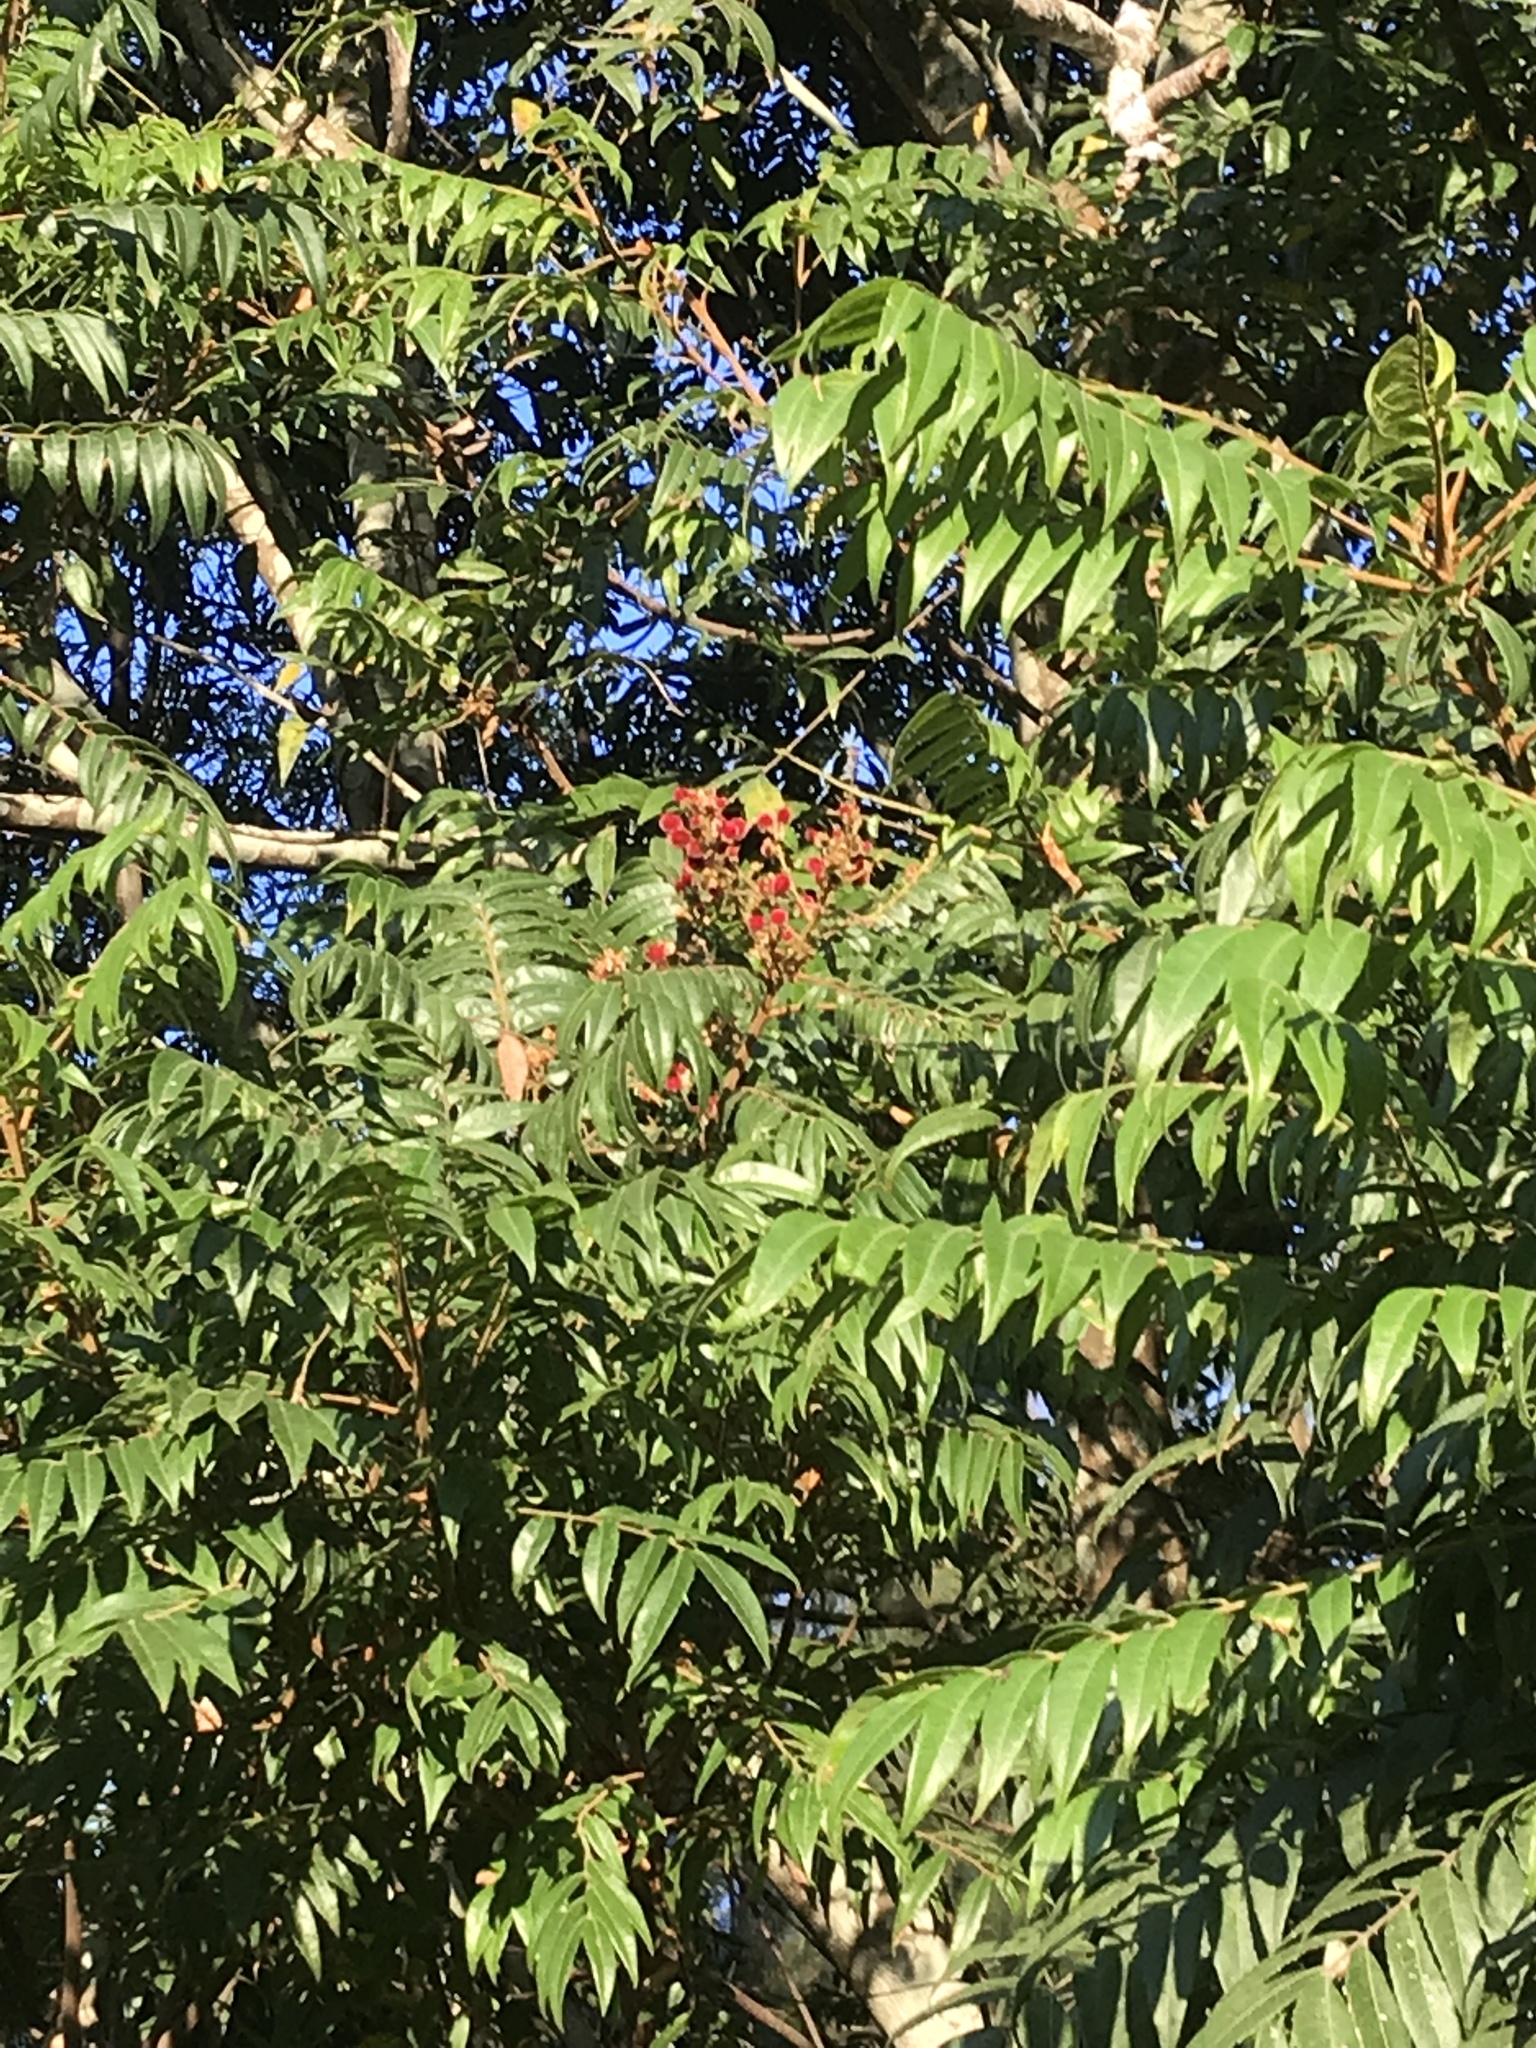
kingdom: Plantae
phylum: Tracheophyta
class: Magnoliopsida
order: Sapindales
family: Sapindaceae
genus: Jagera
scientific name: Jagera pseudorhus
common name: Fern-leaf-tamarind
